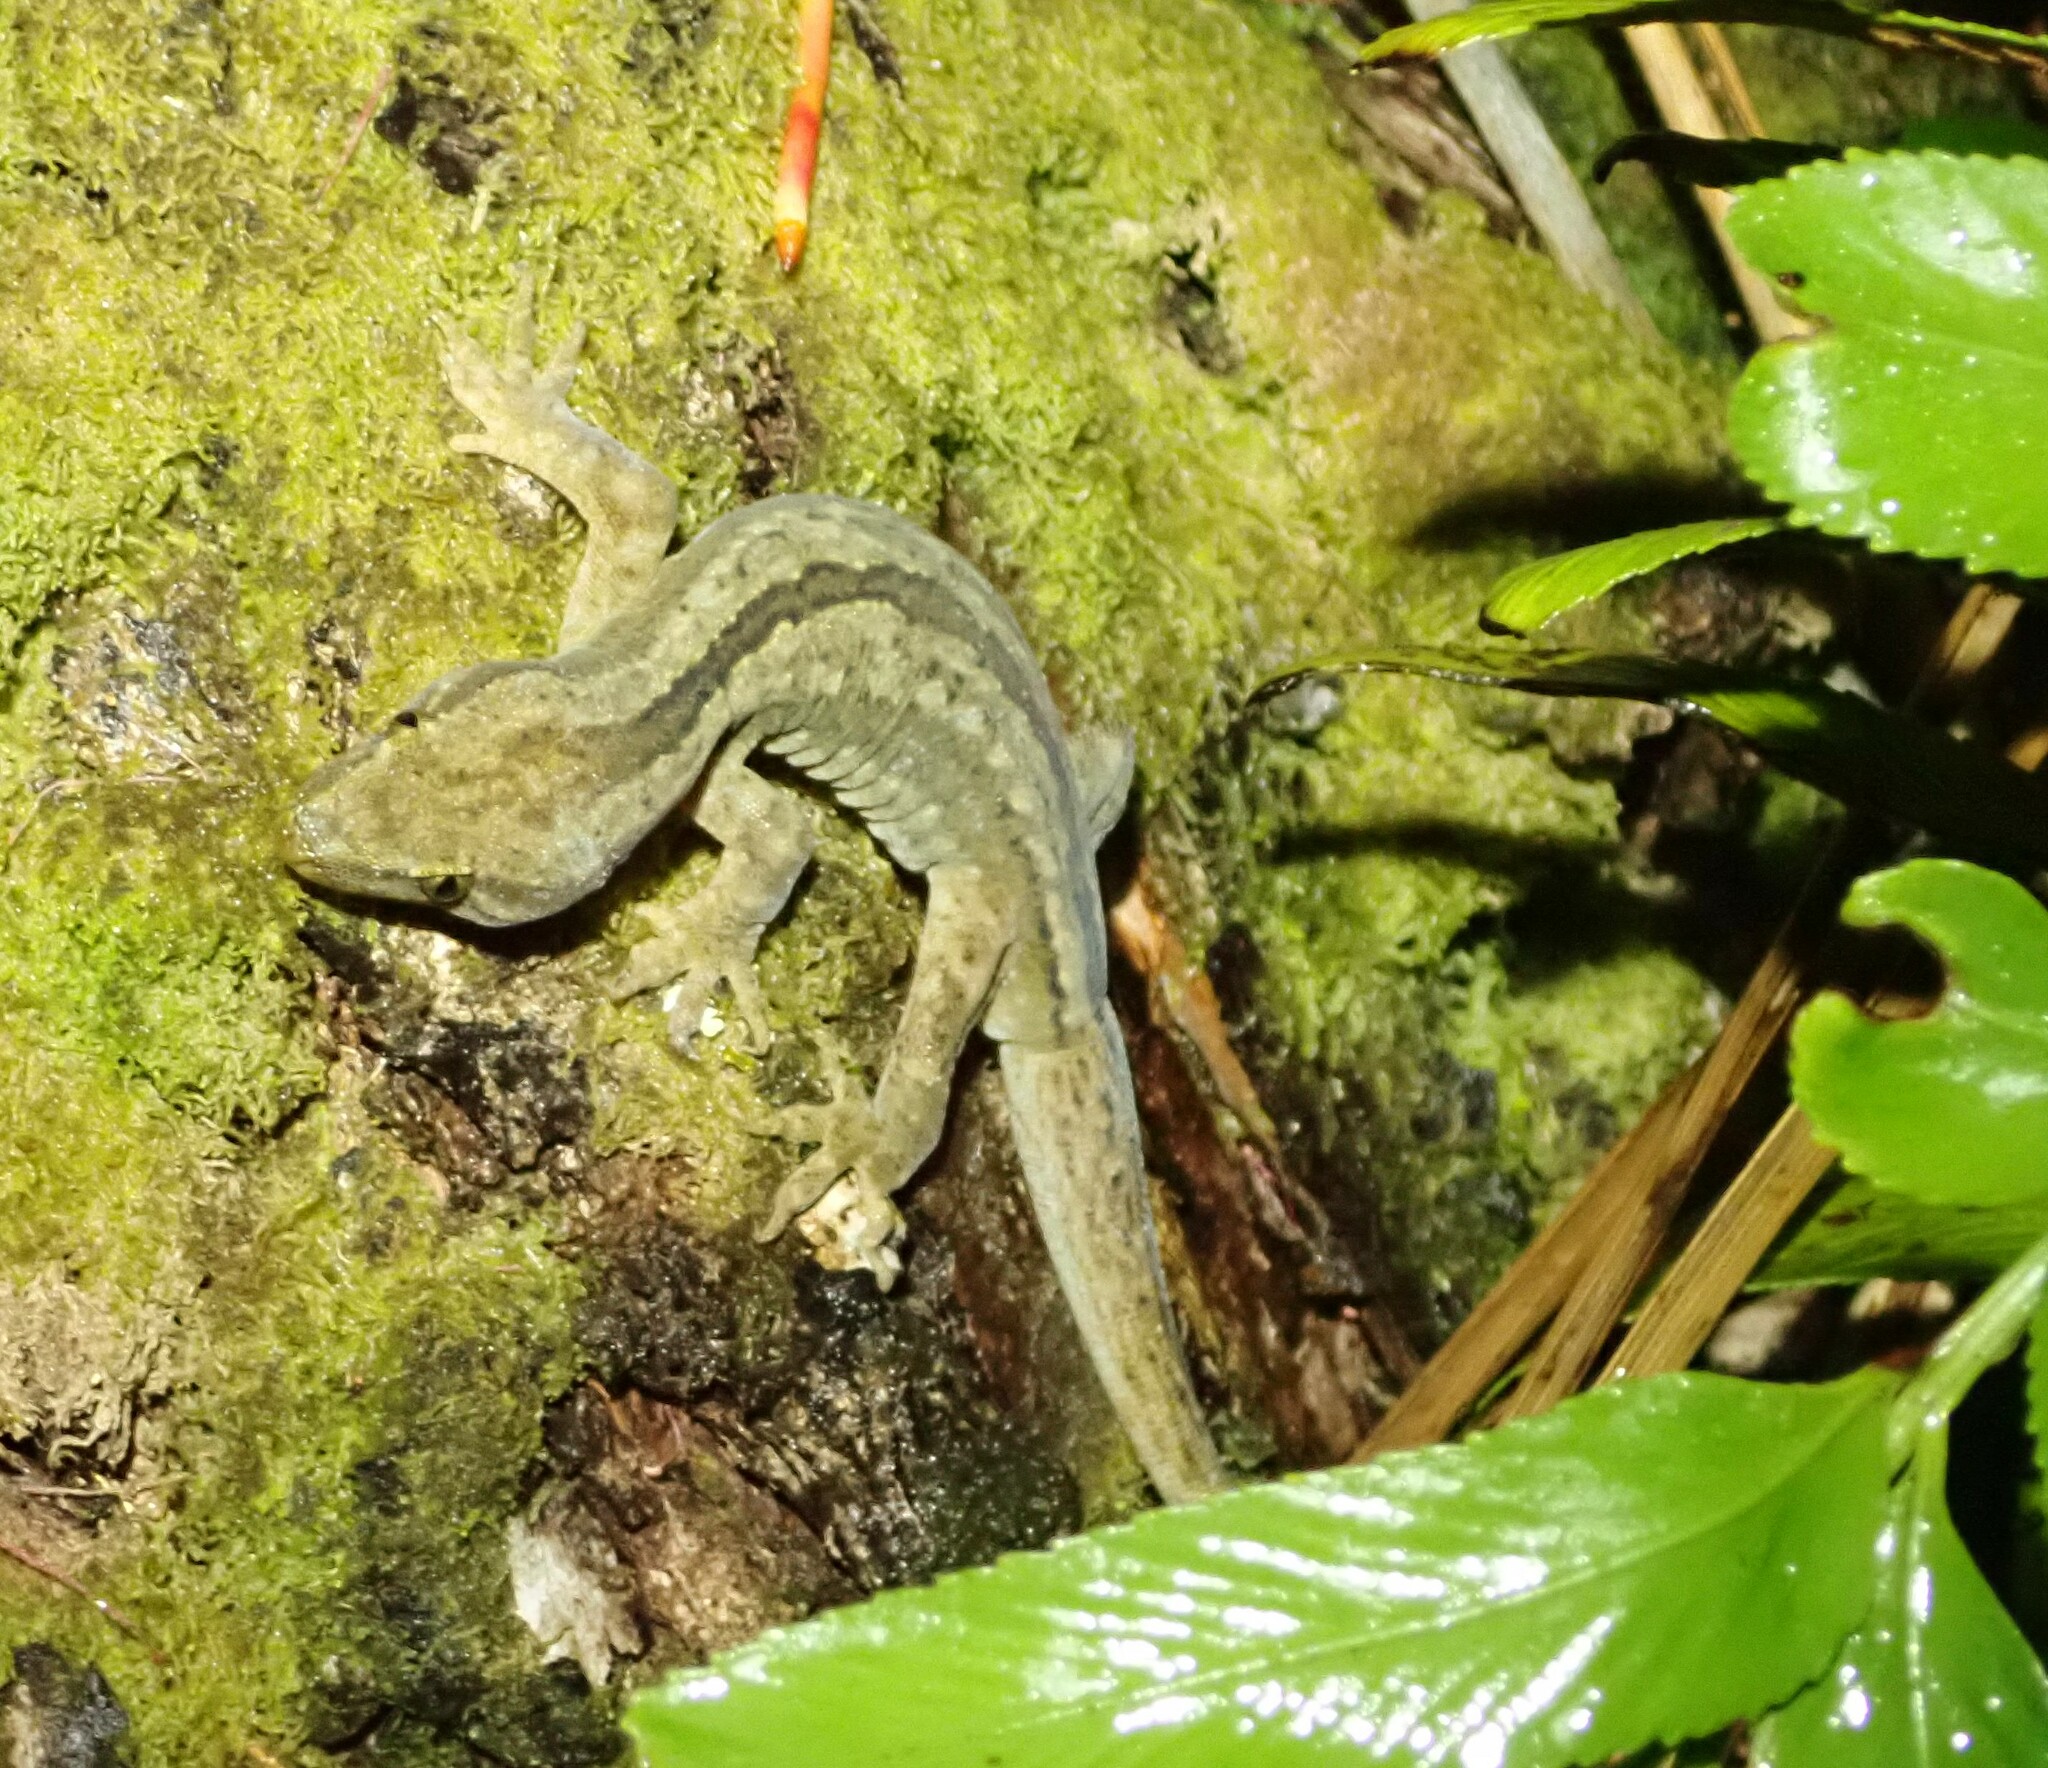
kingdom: Animalia
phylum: Chordata
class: Squamata
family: Diplodactylidae
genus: Woodworthia
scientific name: Woodworthia maculata
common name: Raukawa gecko
